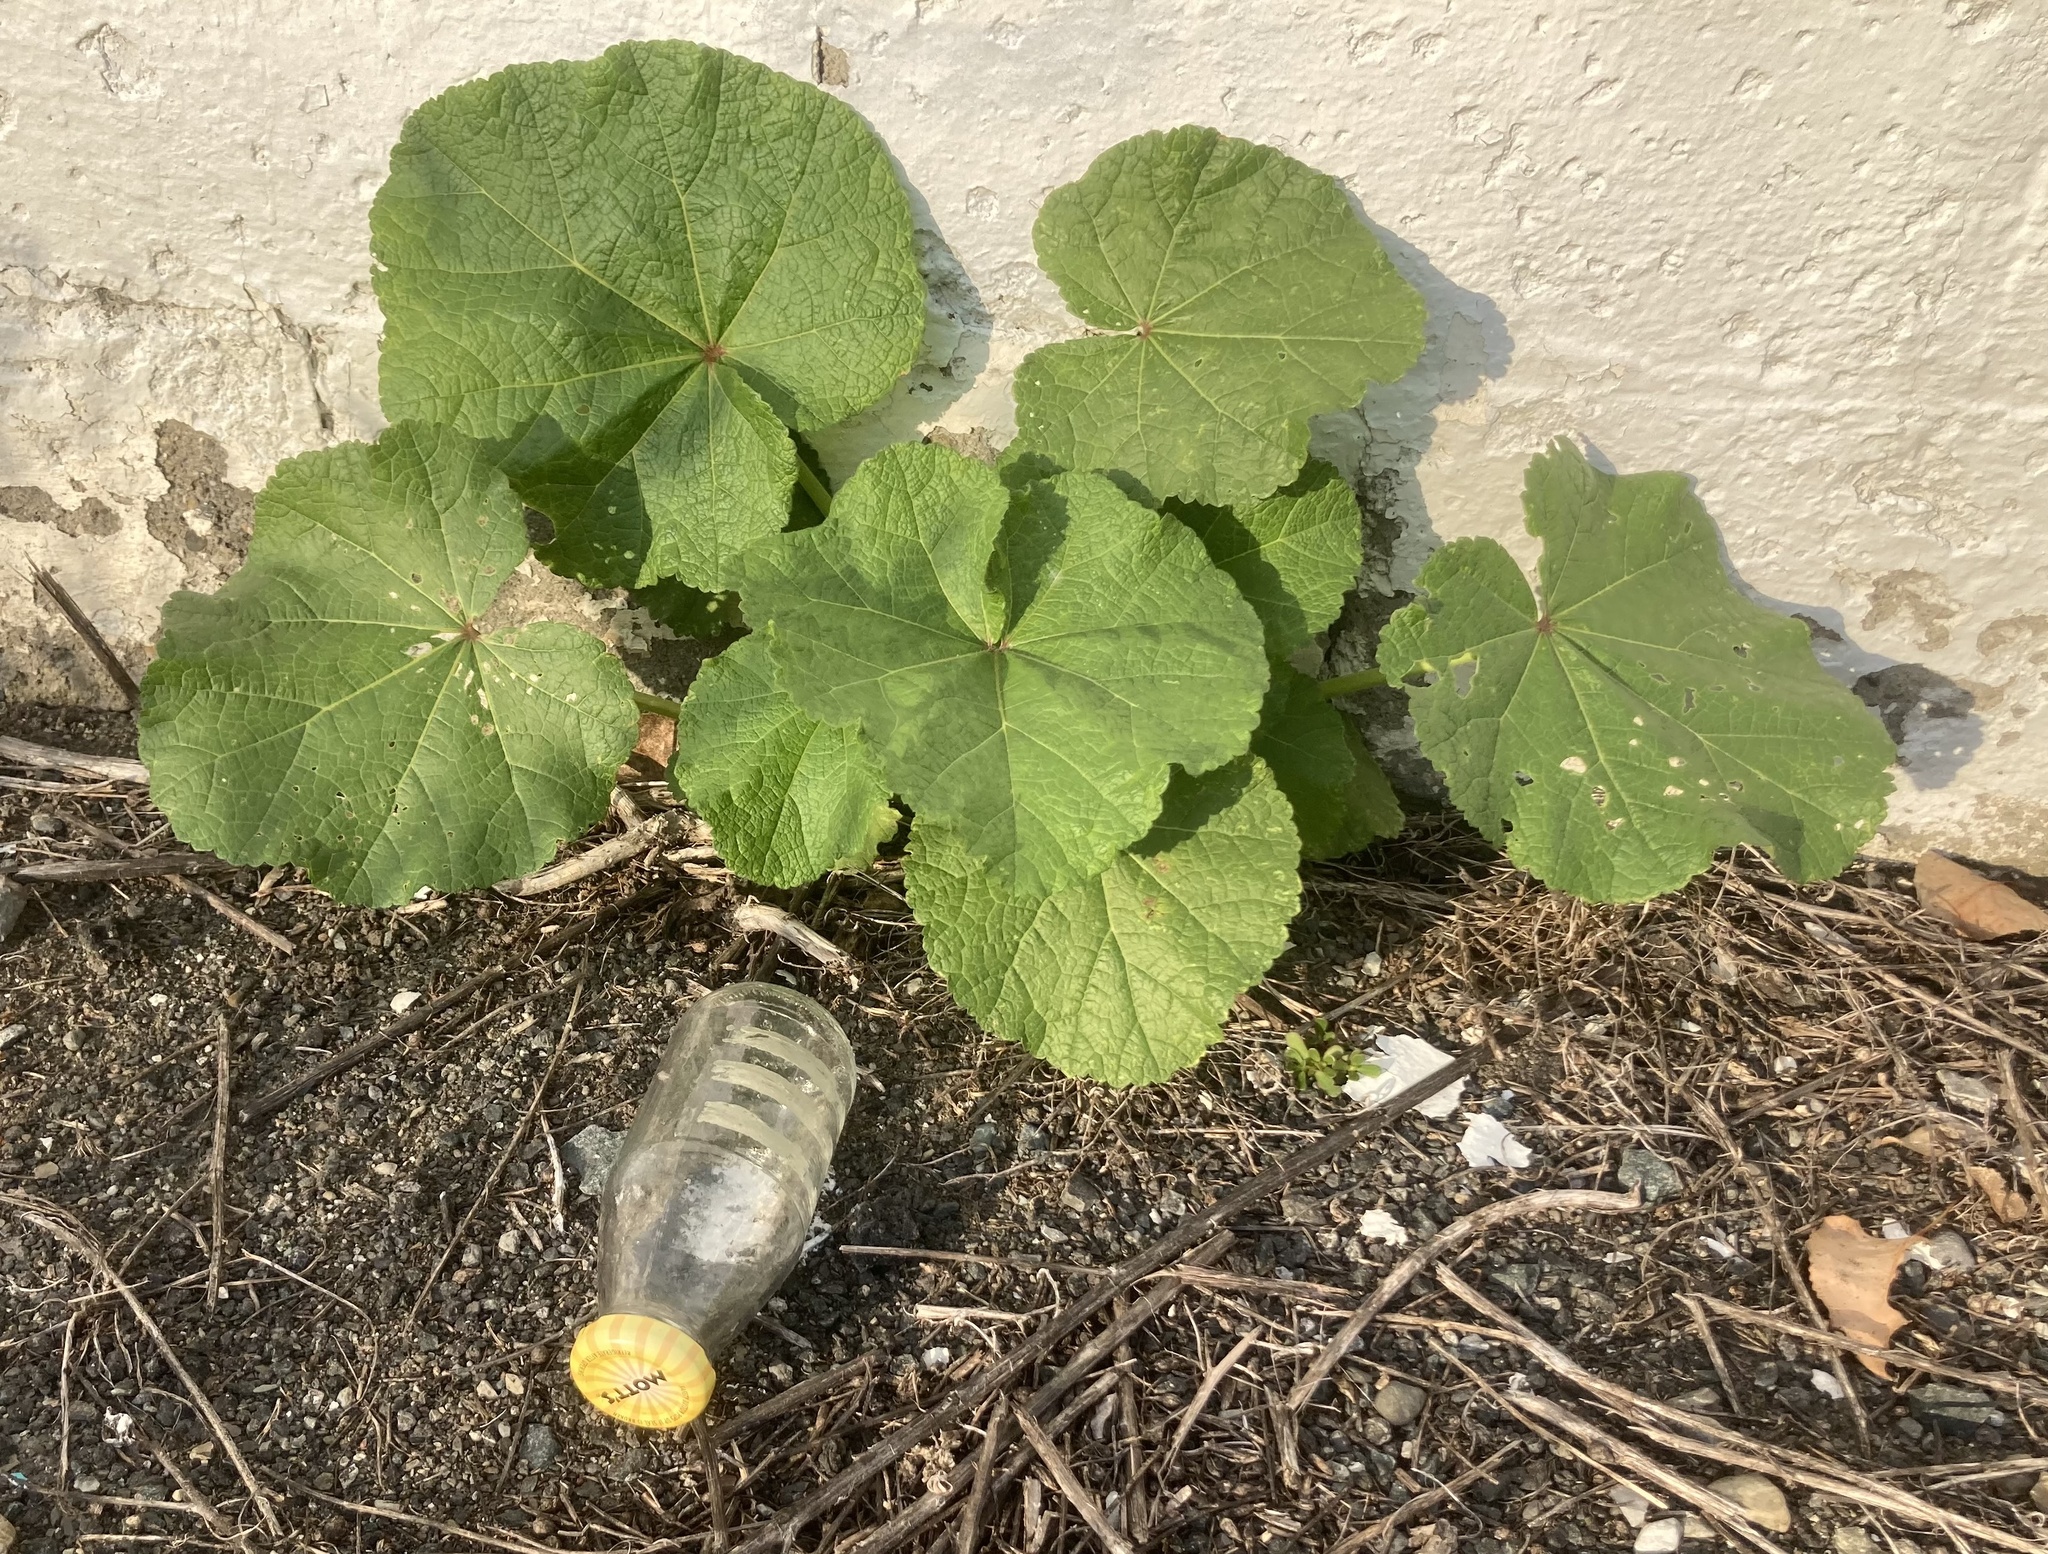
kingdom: Plantae
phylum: Tracheophyta
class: Magnoliopsida
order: Malvales
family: Malvaceae
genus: Alcea
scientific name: Alcea rosea
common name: Hollyhock
